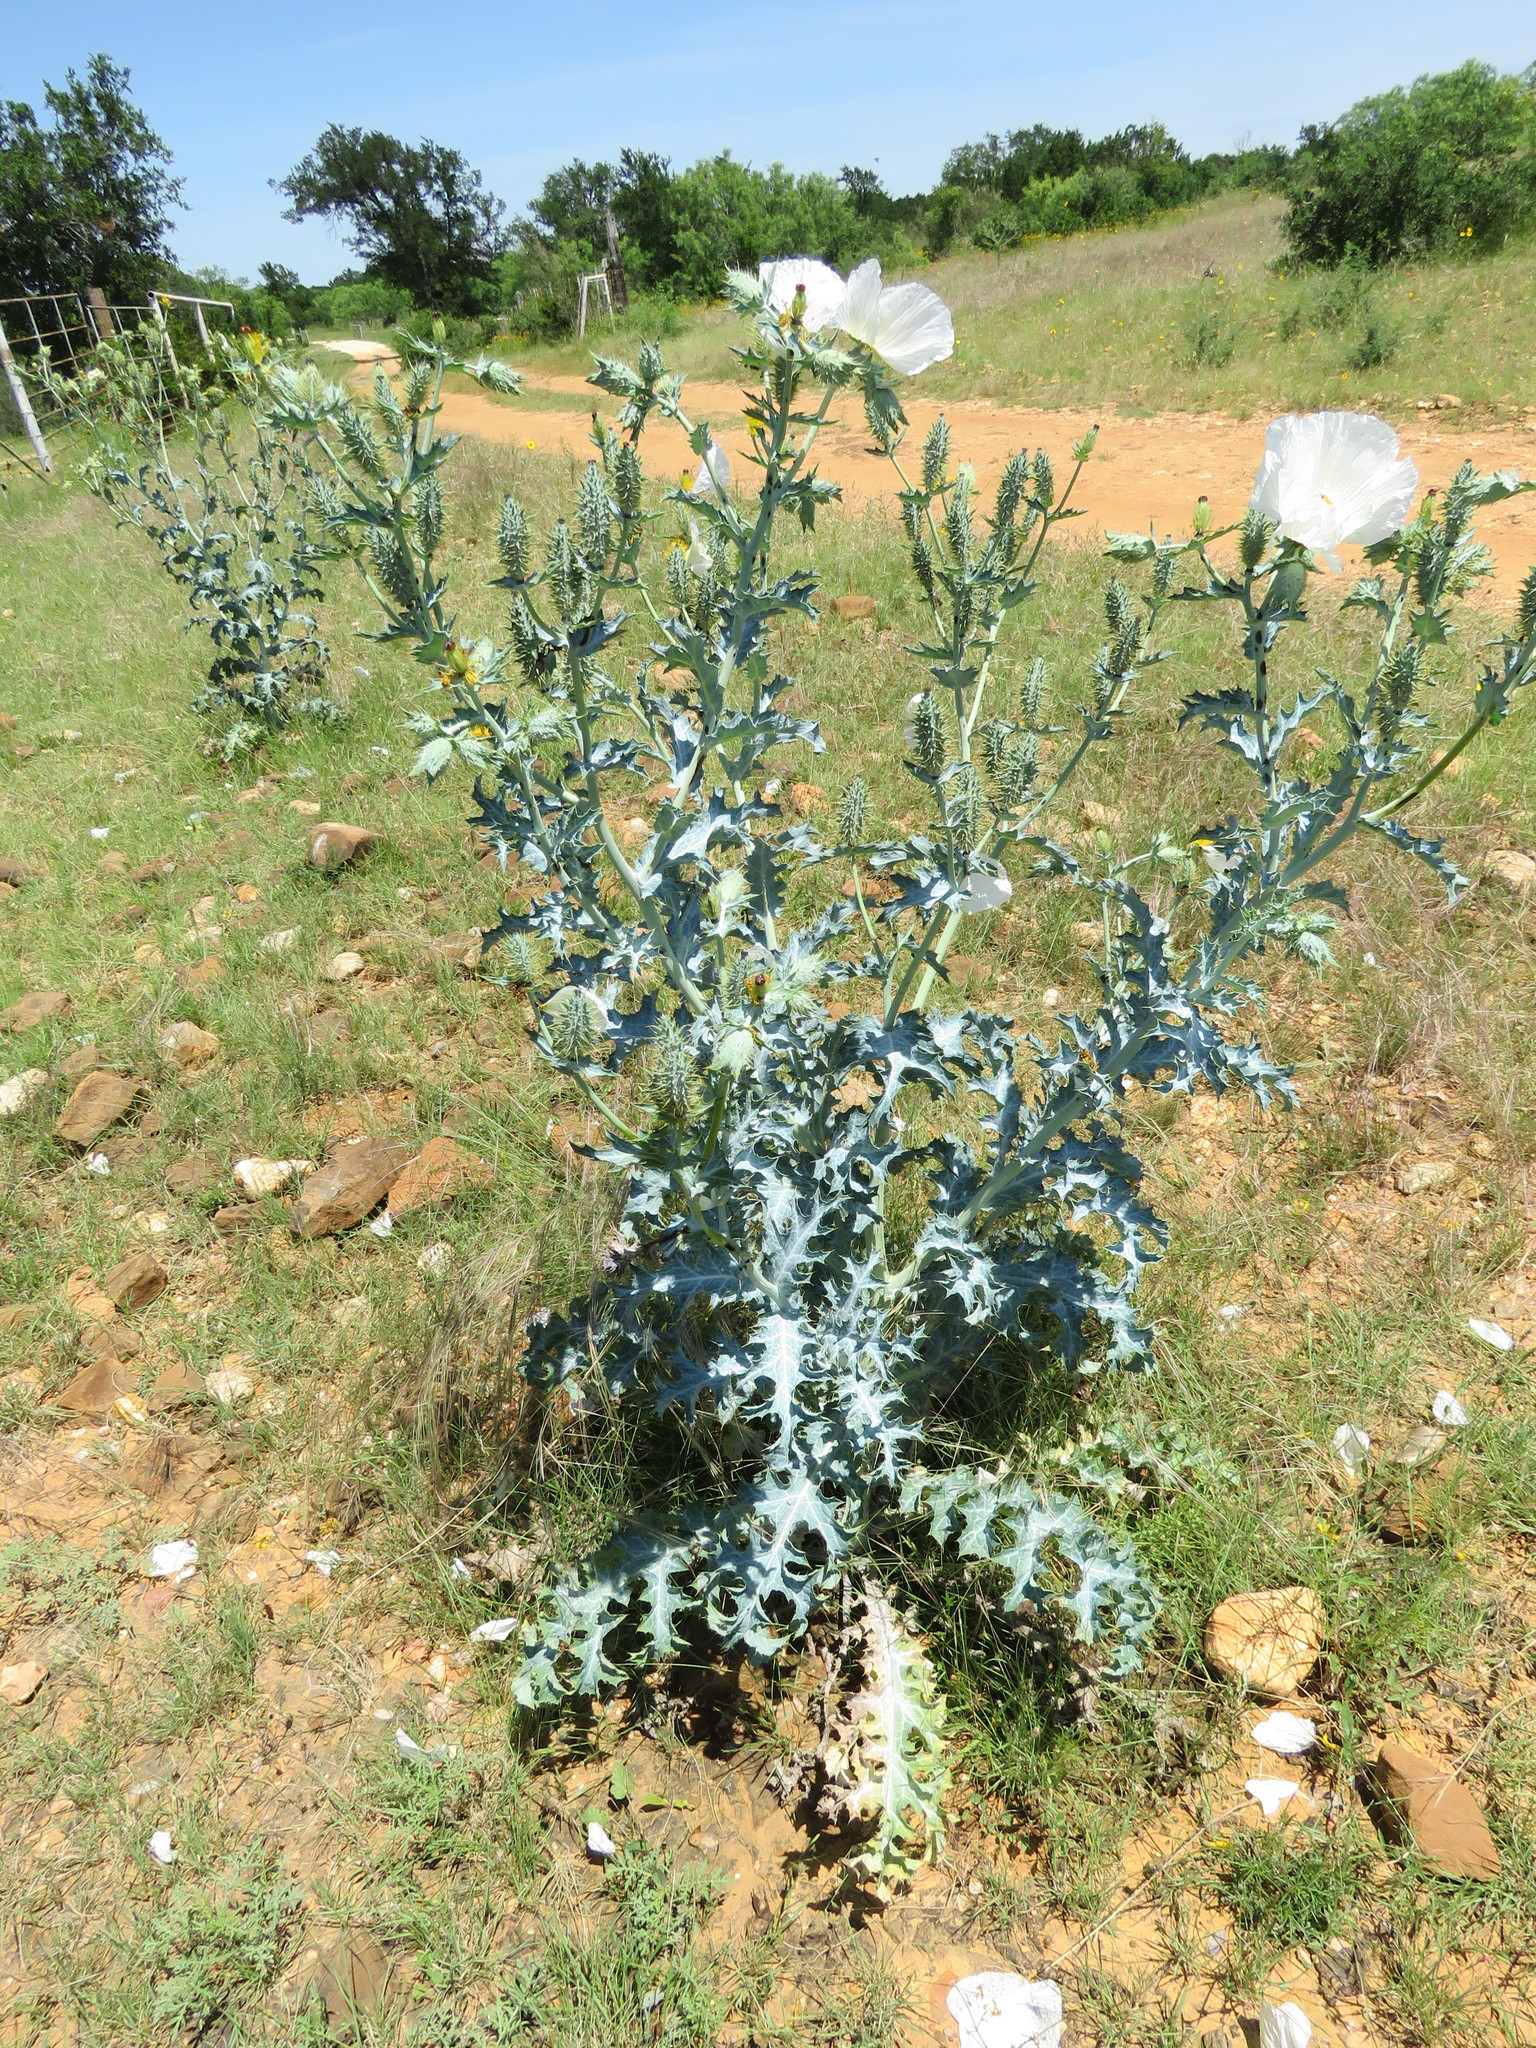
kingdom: Plantae
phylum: Tracheophyta
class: Magnoliopsida
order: Ranunculales
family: Papaveraceae
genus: Argemone
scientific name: Argemone albiflora
